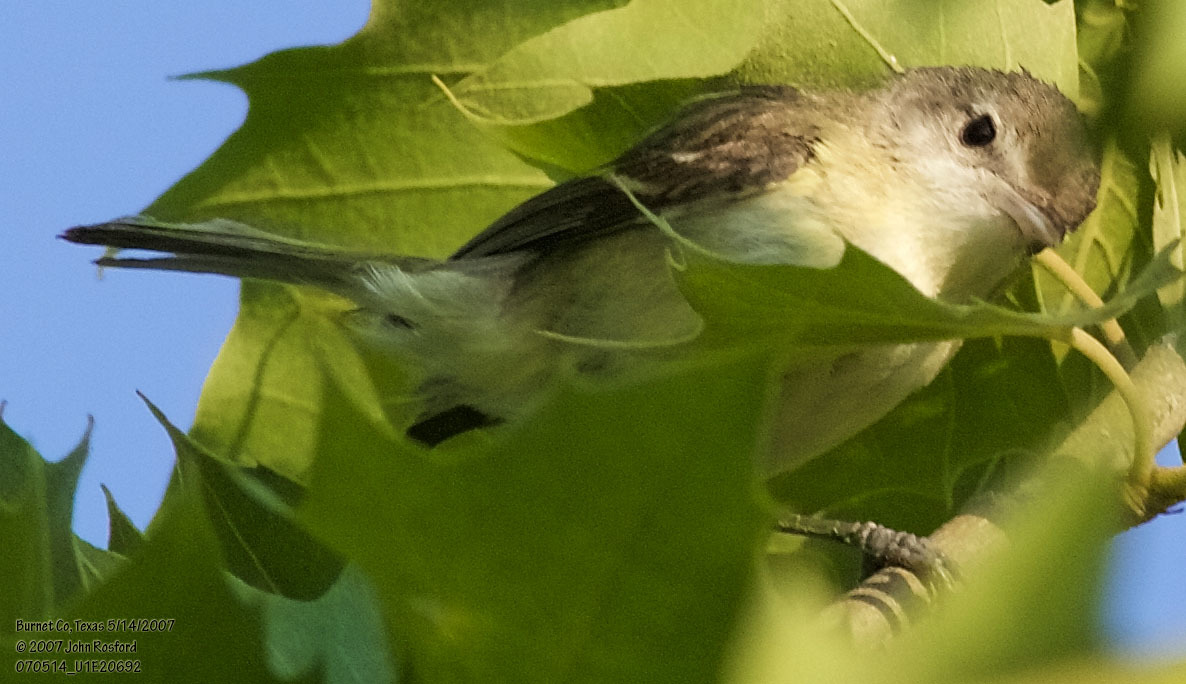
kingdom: Animalia
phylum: Chordata
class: Aves
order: Passeriformes
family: Vireonidae
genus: Vireo
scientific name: Vireo bellii
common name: Bell's vireo
